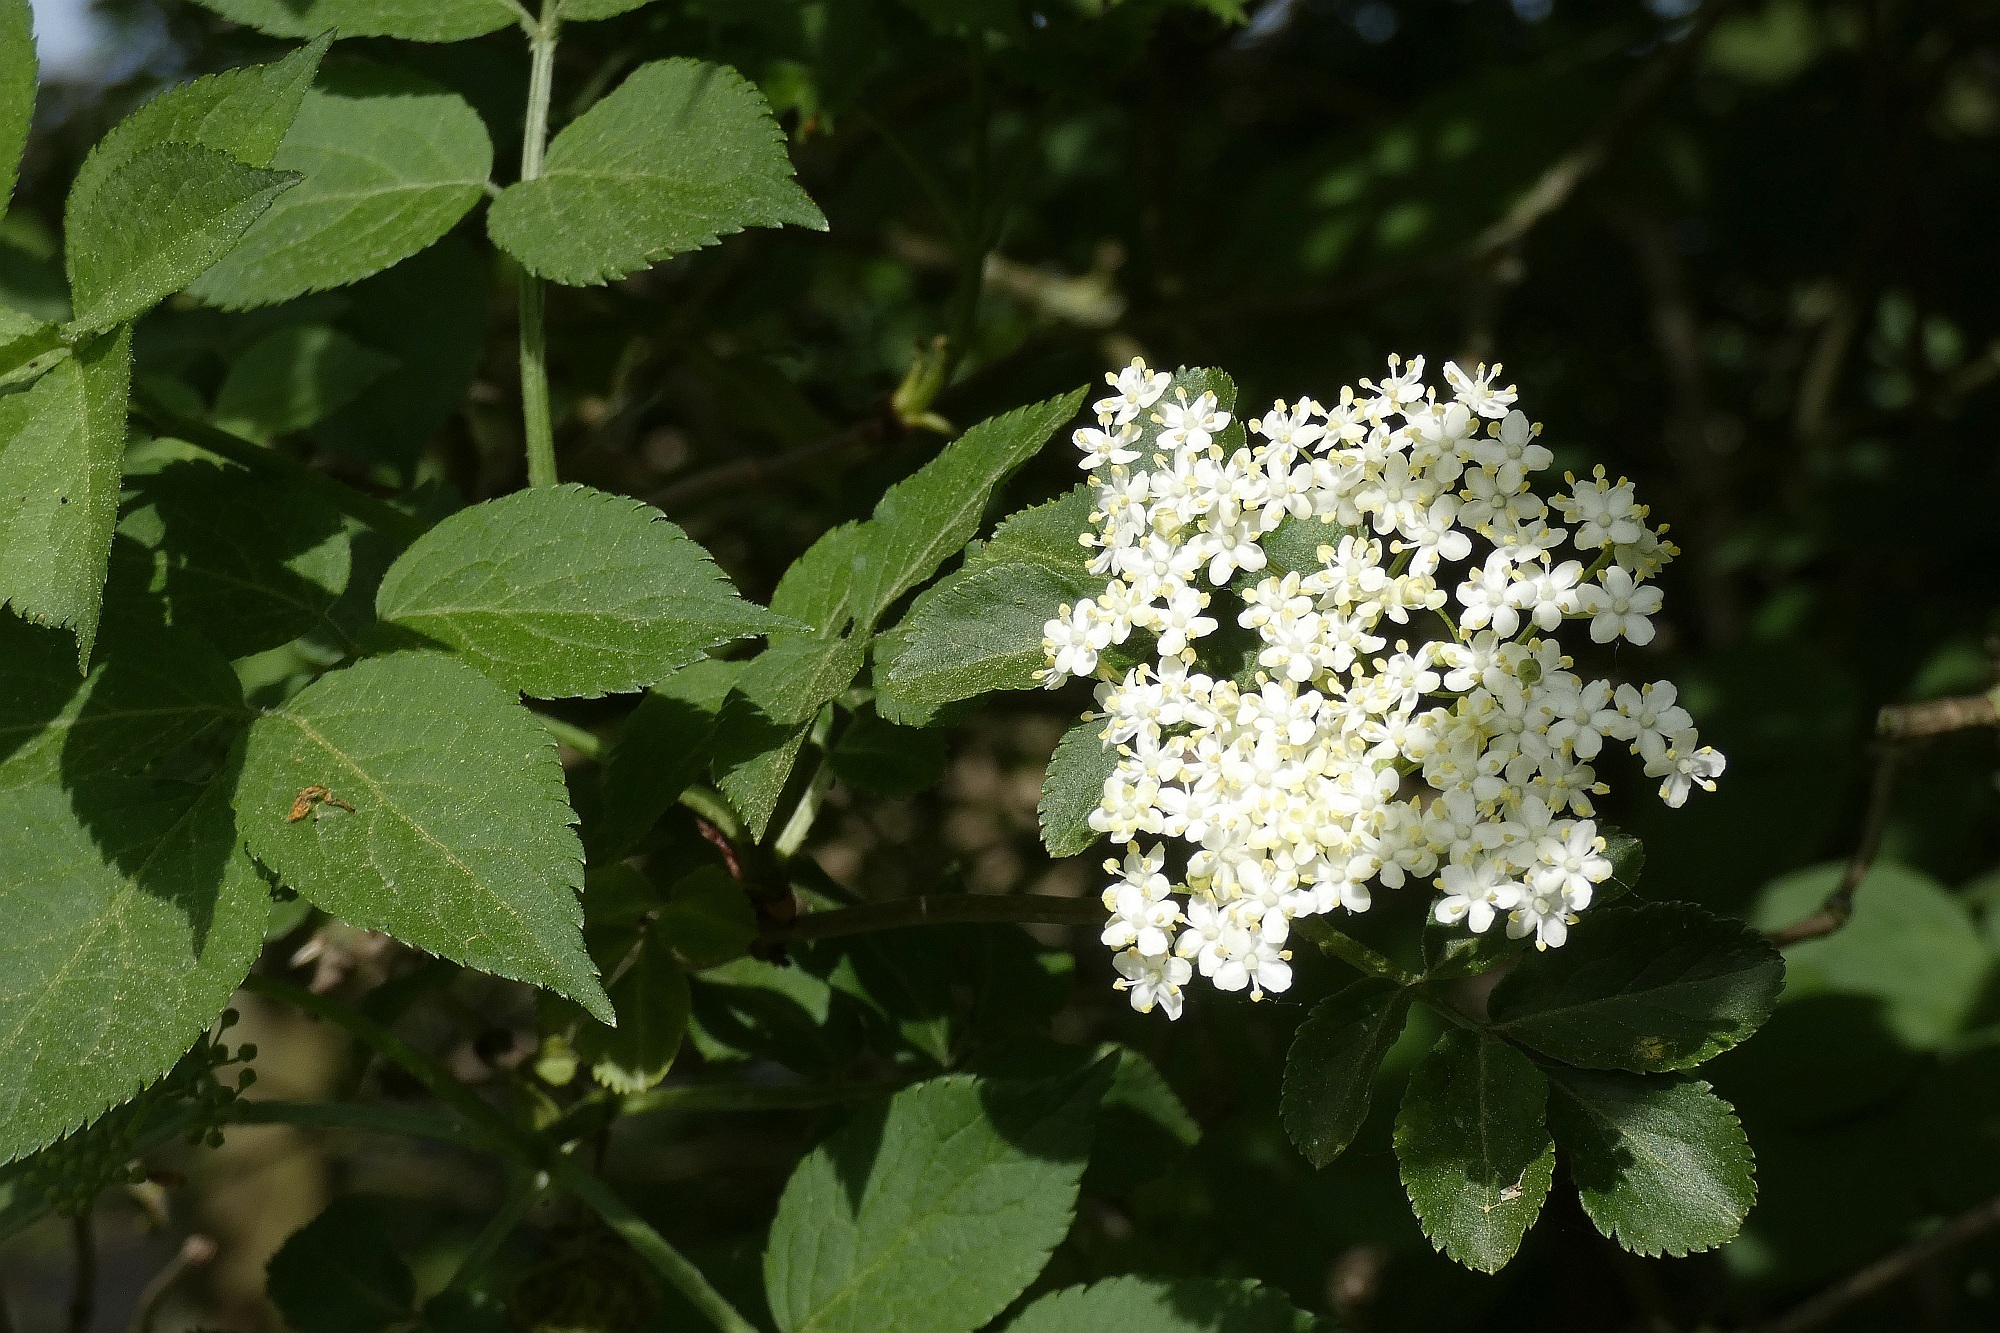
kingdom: Plantae
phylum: Tracheophyta
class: Magnoliopsida
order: Dipsacales
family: Viburnaceae
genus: Sambucus
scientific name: Sambucus nigra
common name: Elder
